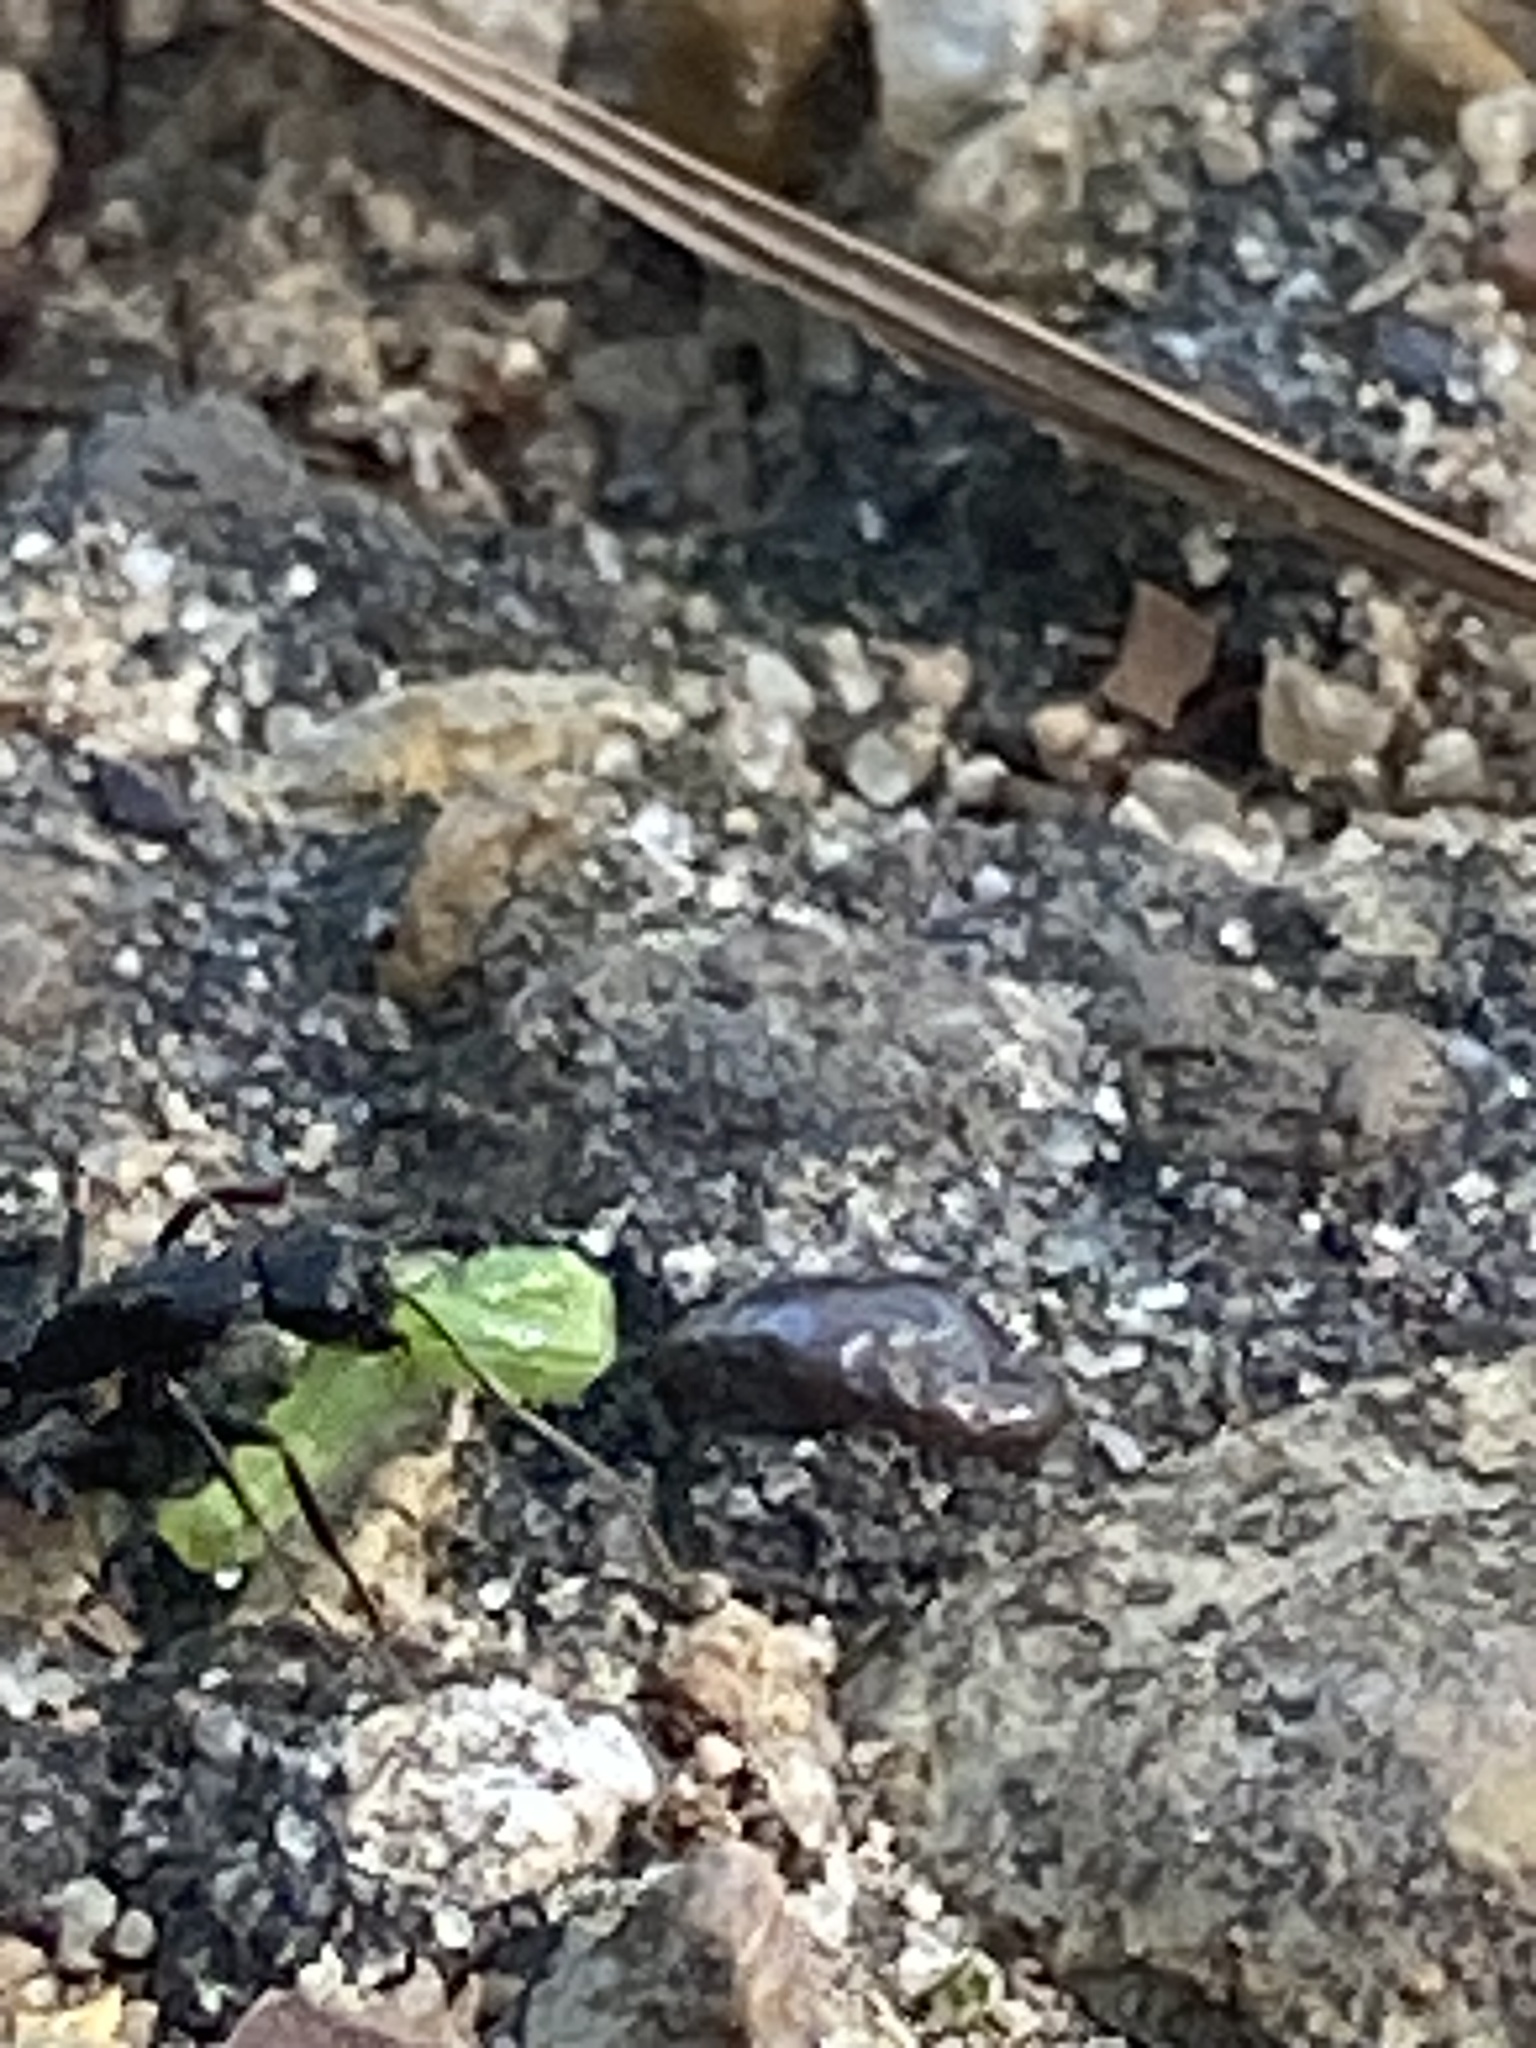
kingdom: Animalia
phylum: Arthropoda
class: Insecta
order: Hymenoptera
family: Formicidae
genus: Camponotus
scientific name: Camponotus pennsylvanicus
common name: Black carpenter ant
